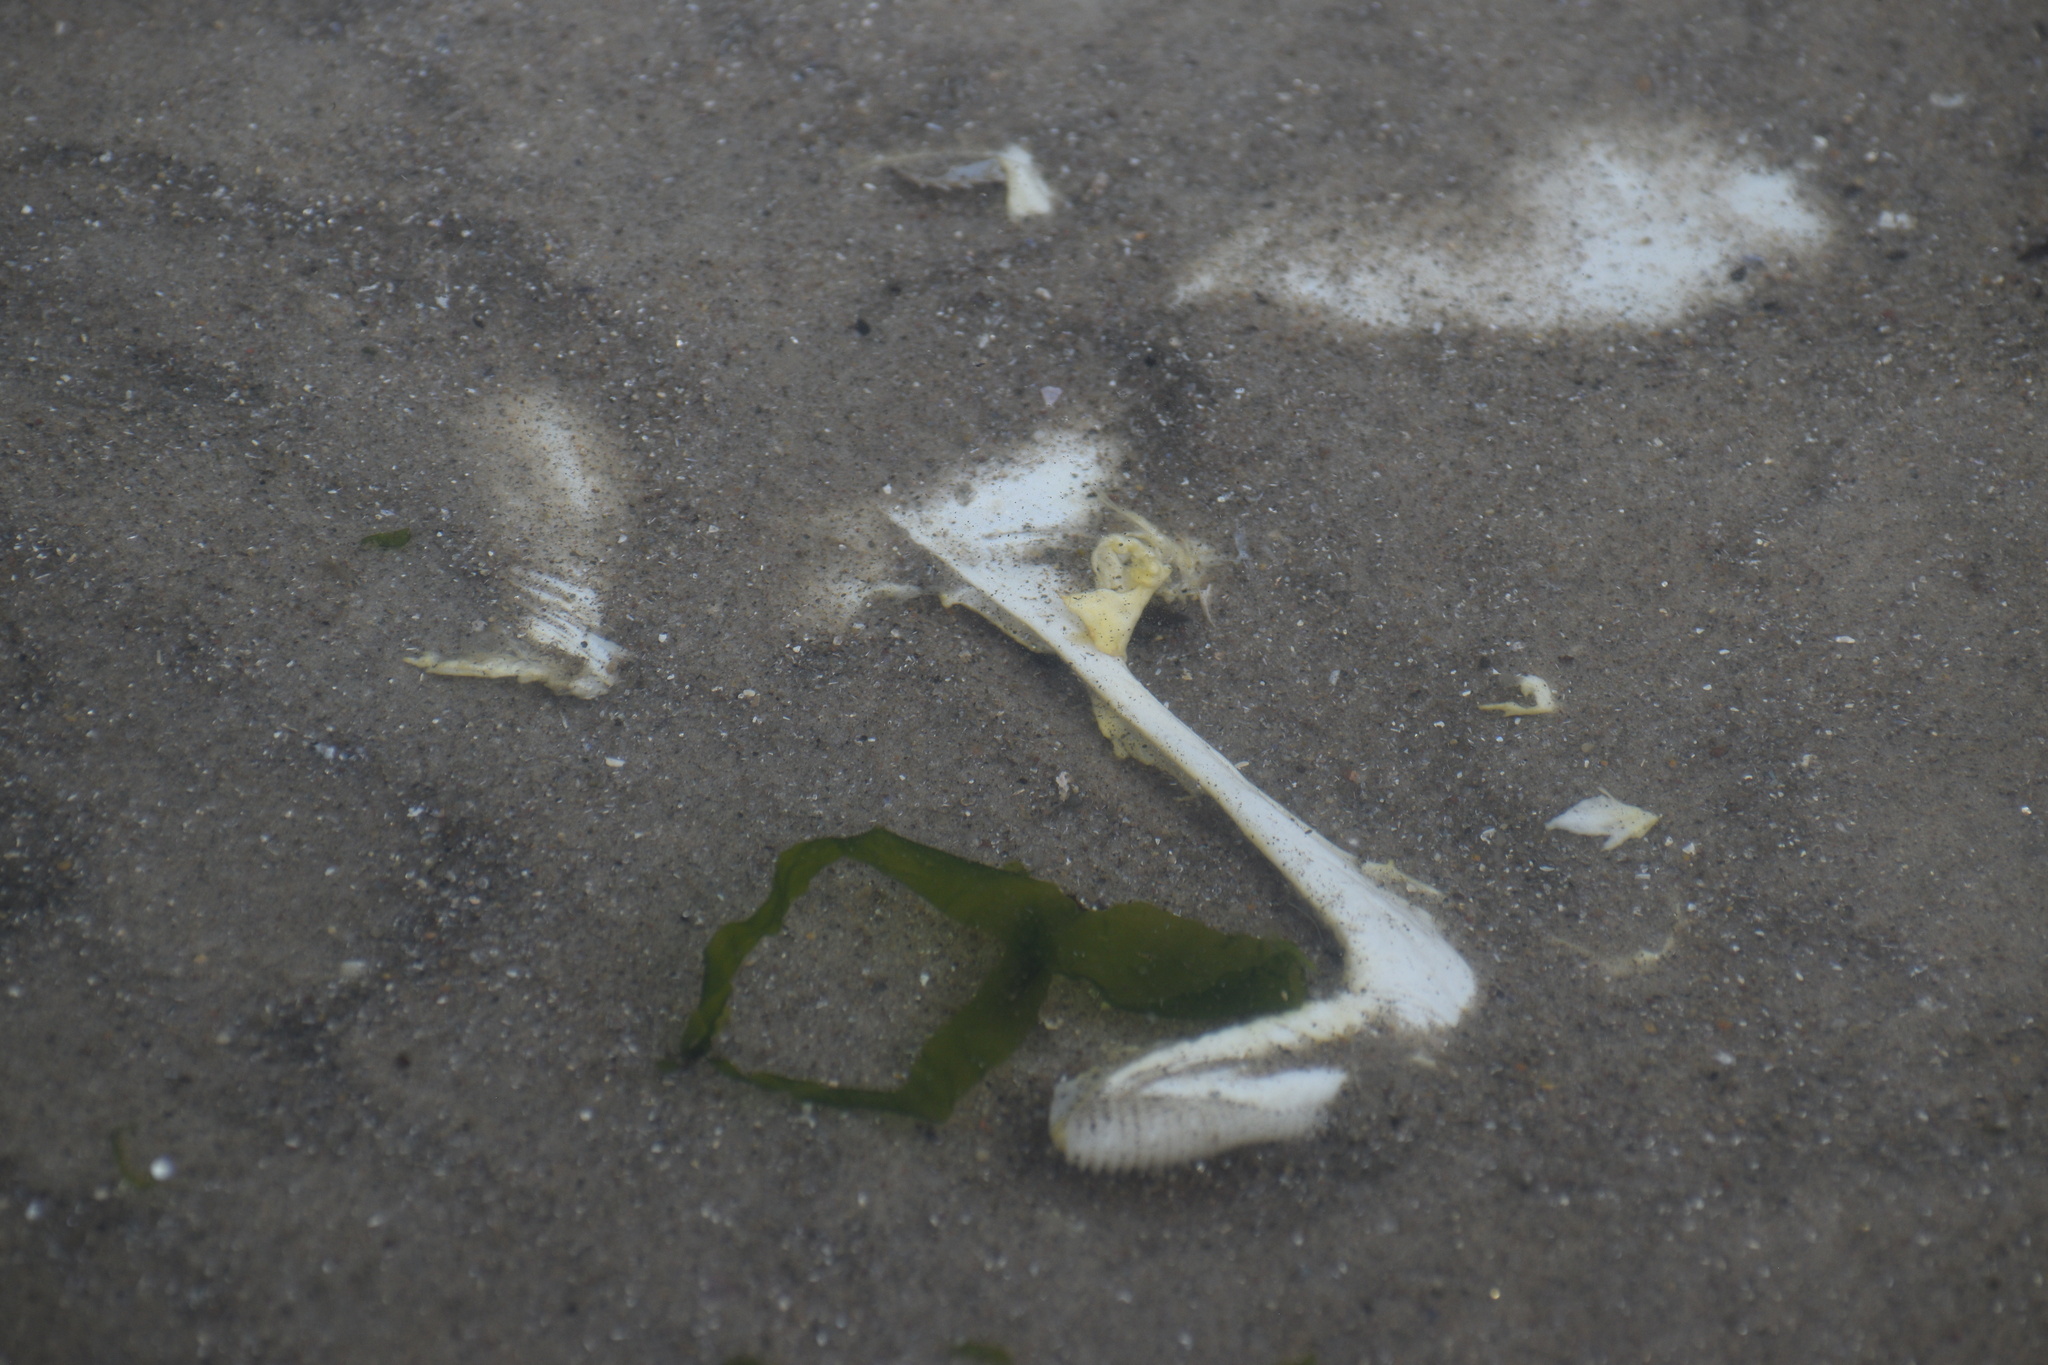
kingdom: Animalia
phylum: Chordata
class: Elasmobranchii
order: Rajiformes
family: Rajidae
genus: Raja
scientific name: Raja eglanteria
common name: Clearnose skate
